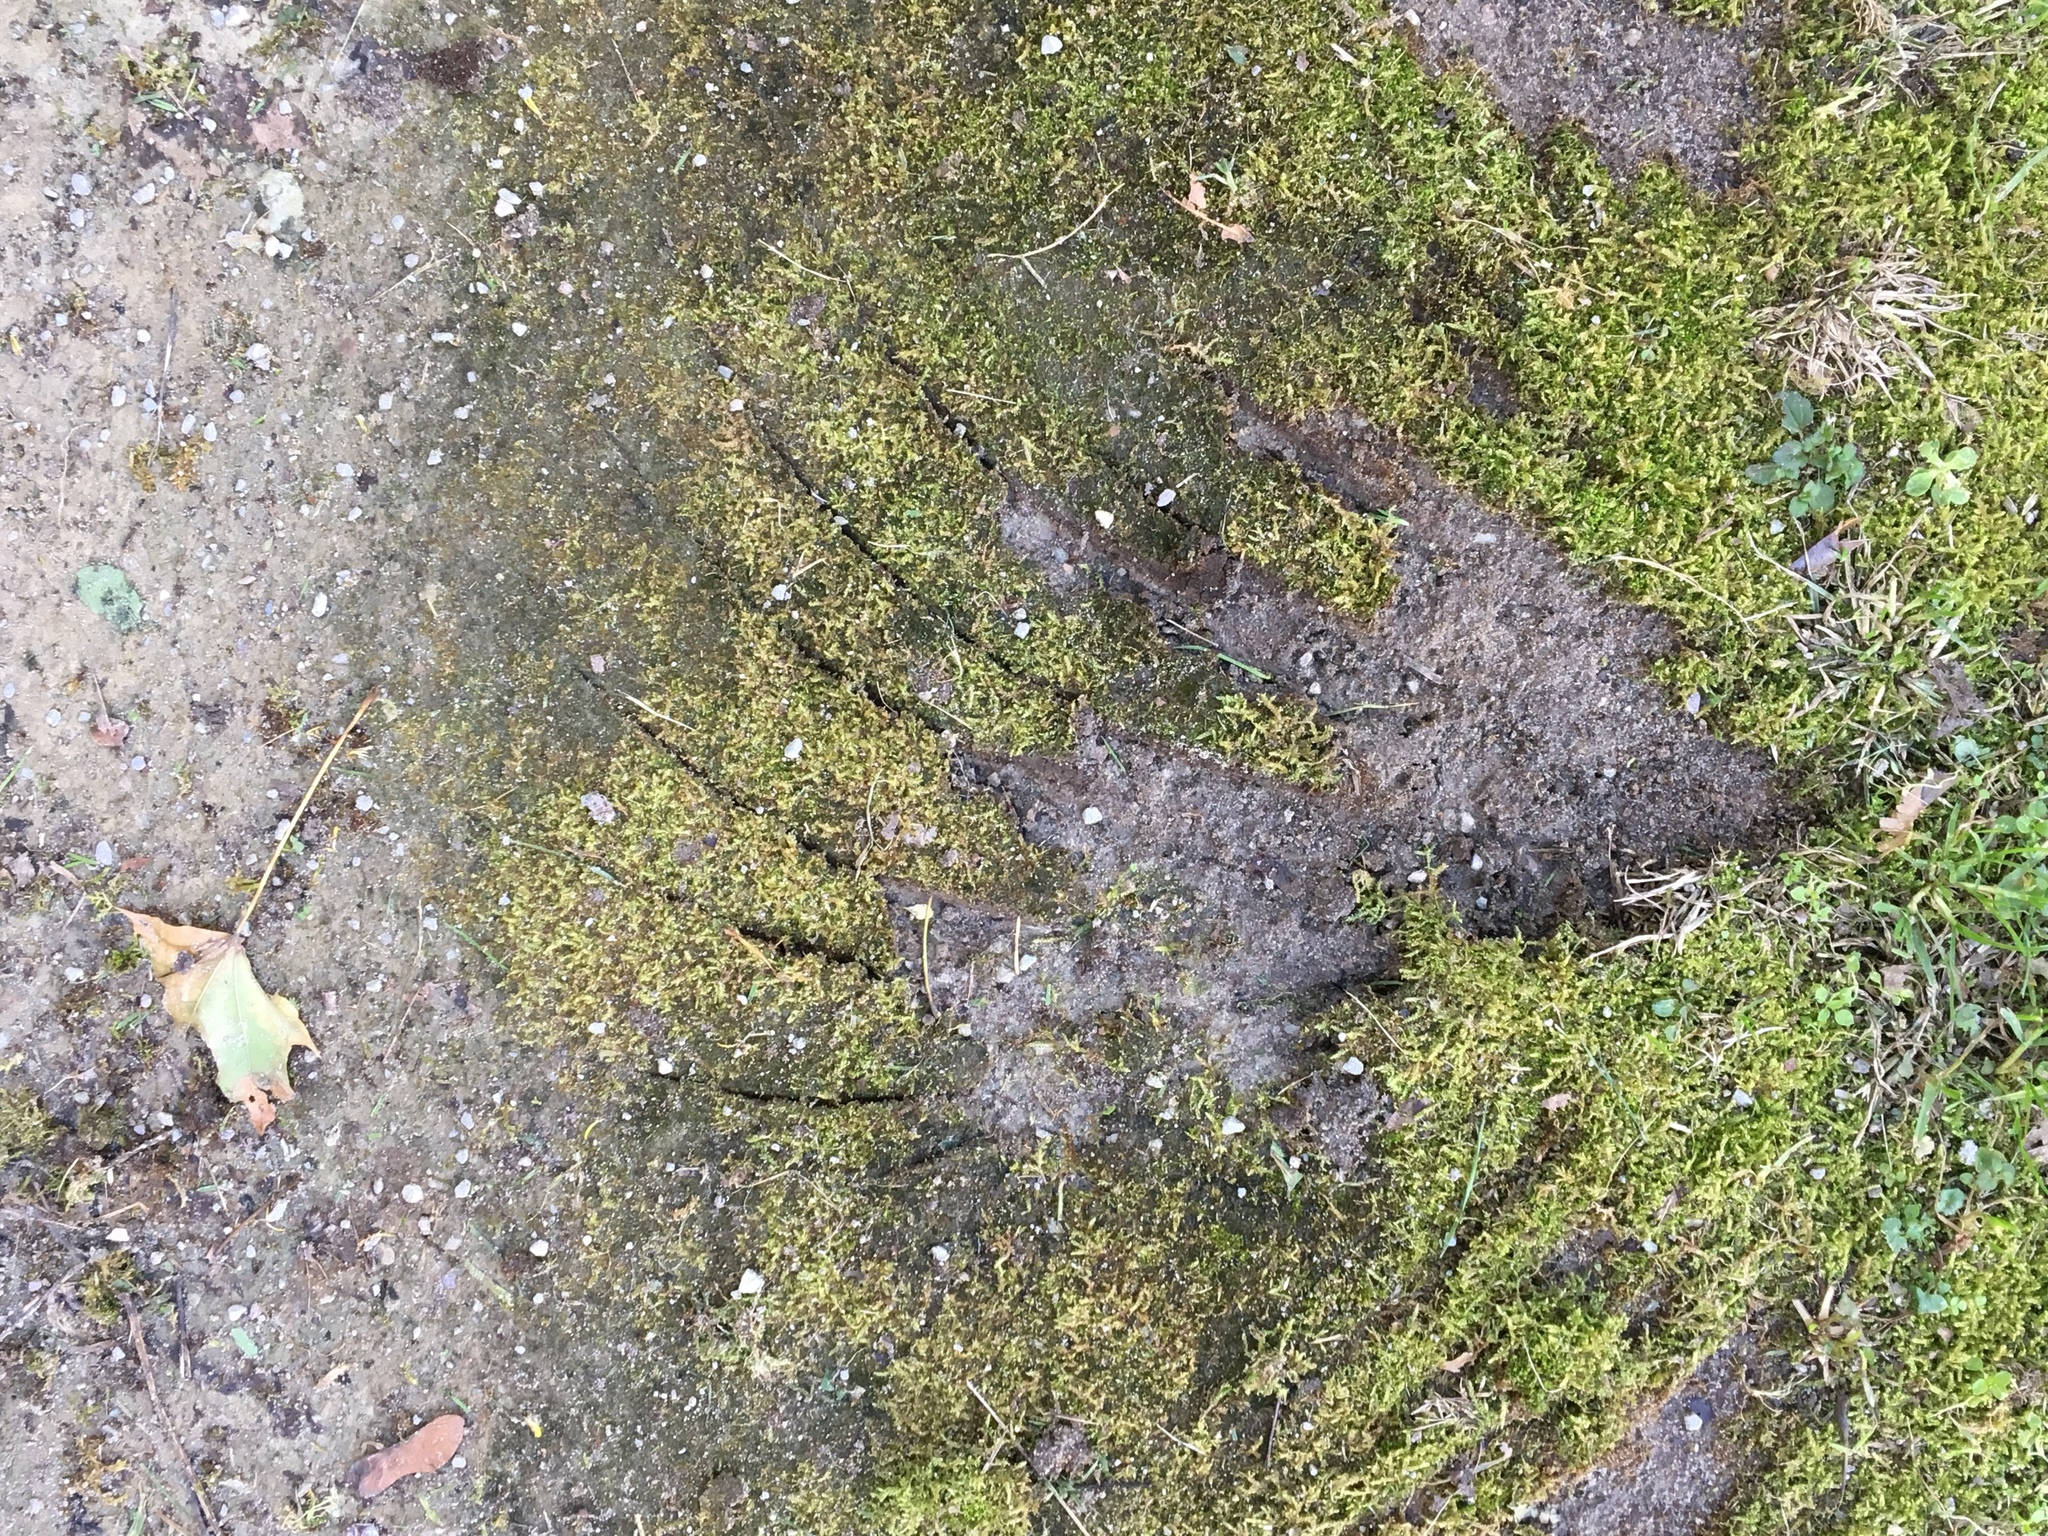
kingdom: Animalia
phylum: Chordata
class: Mammalia
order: Carnivora
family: Ursidae
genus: Ursus
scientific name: Ursus americanus
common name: American black bear
